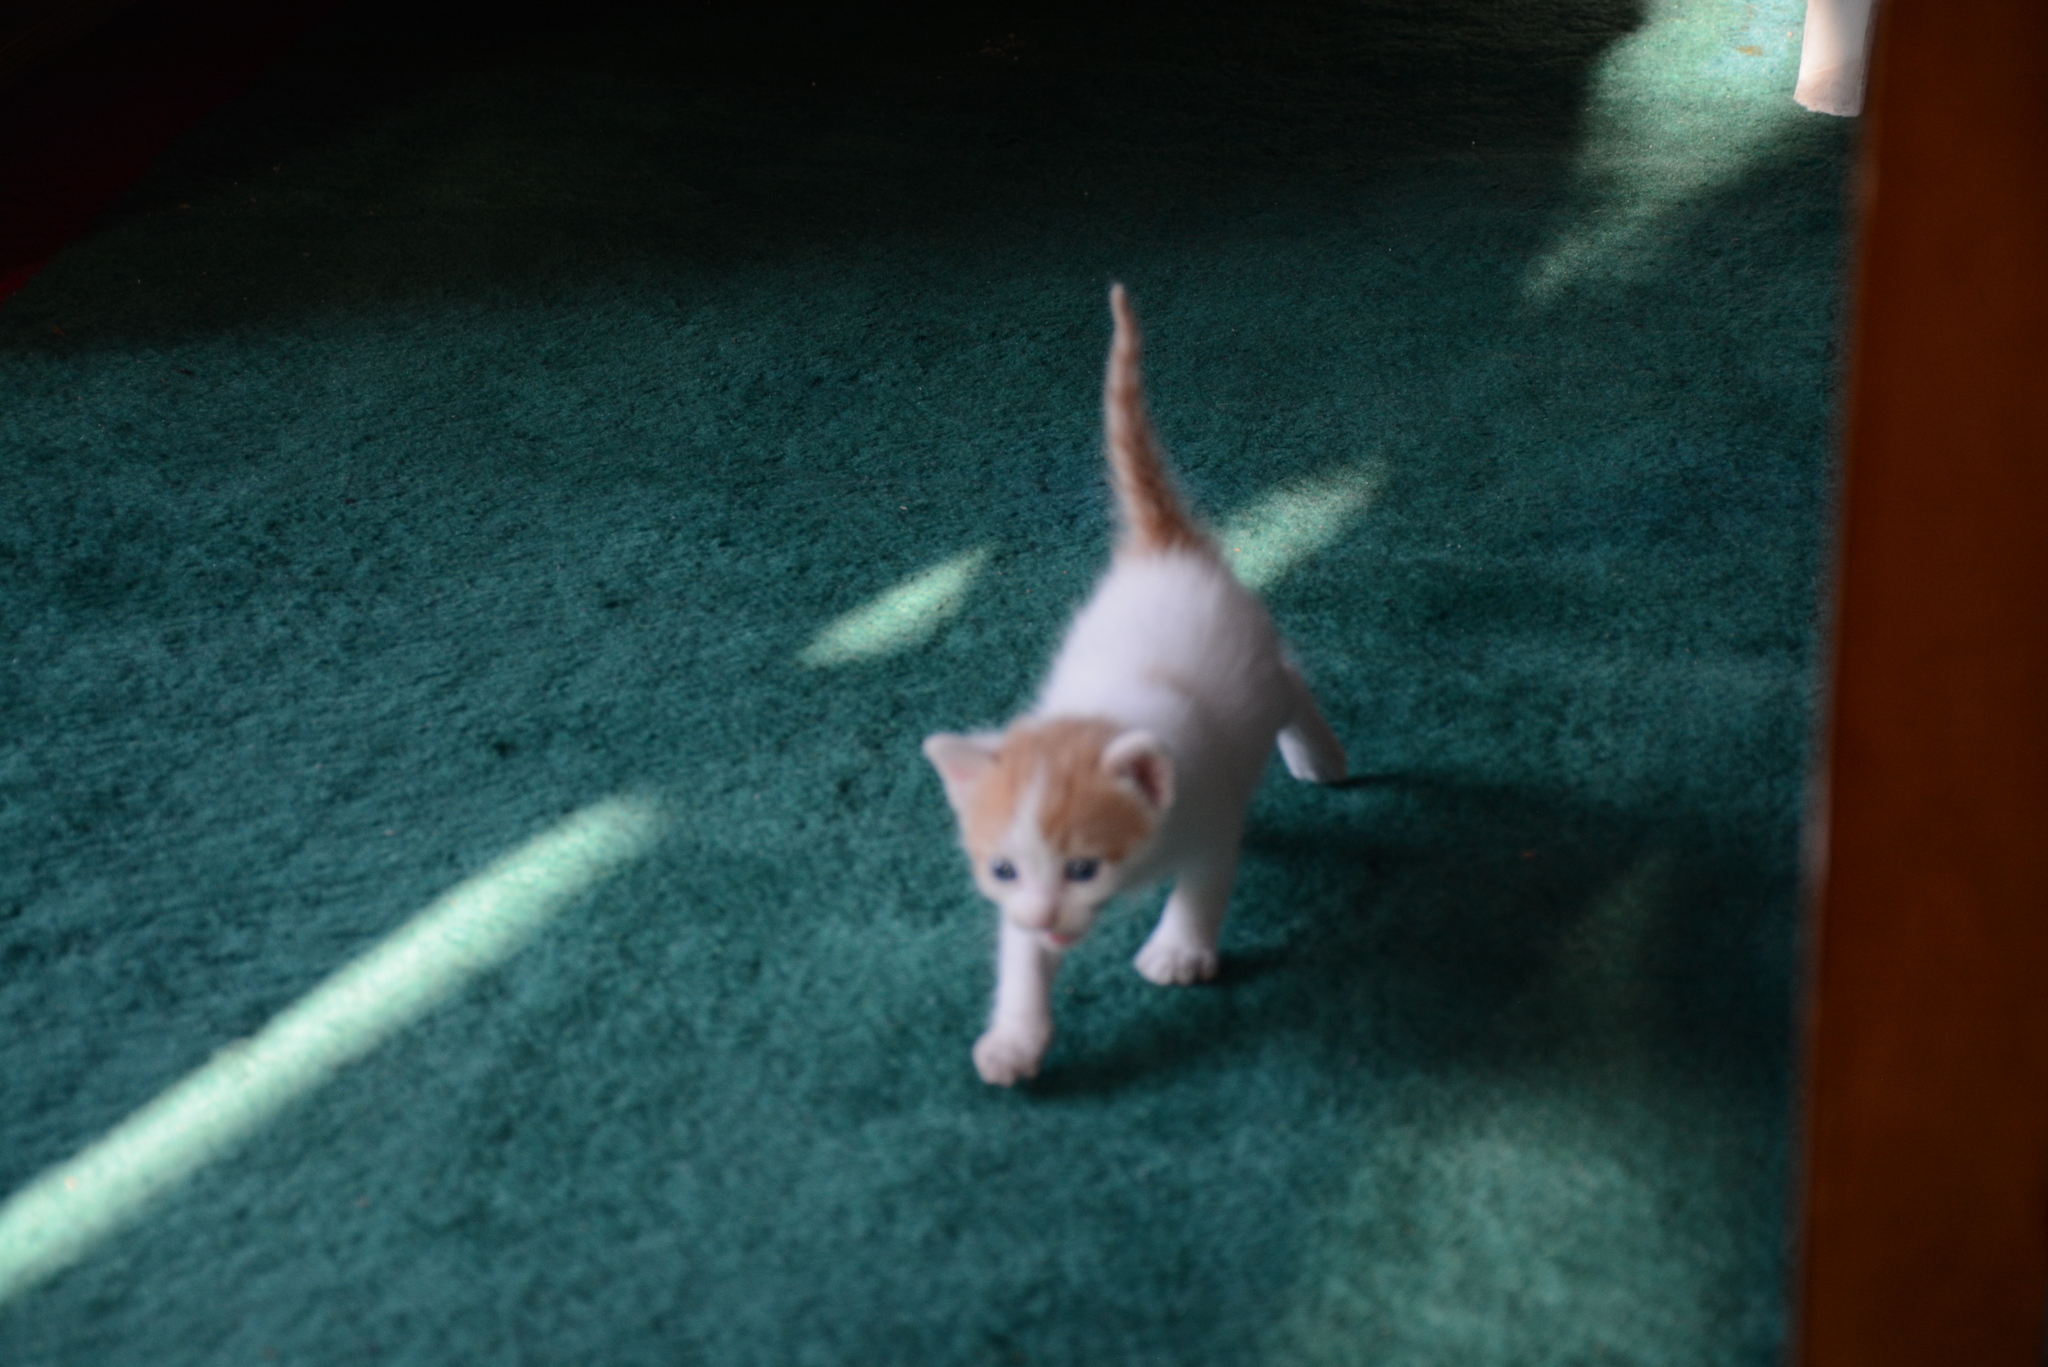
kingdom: Animalia
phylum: Chordata
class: Mammalia
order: Carnivora
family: Felidae
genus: Felis
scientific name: Felis catus
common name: Domestic cat
